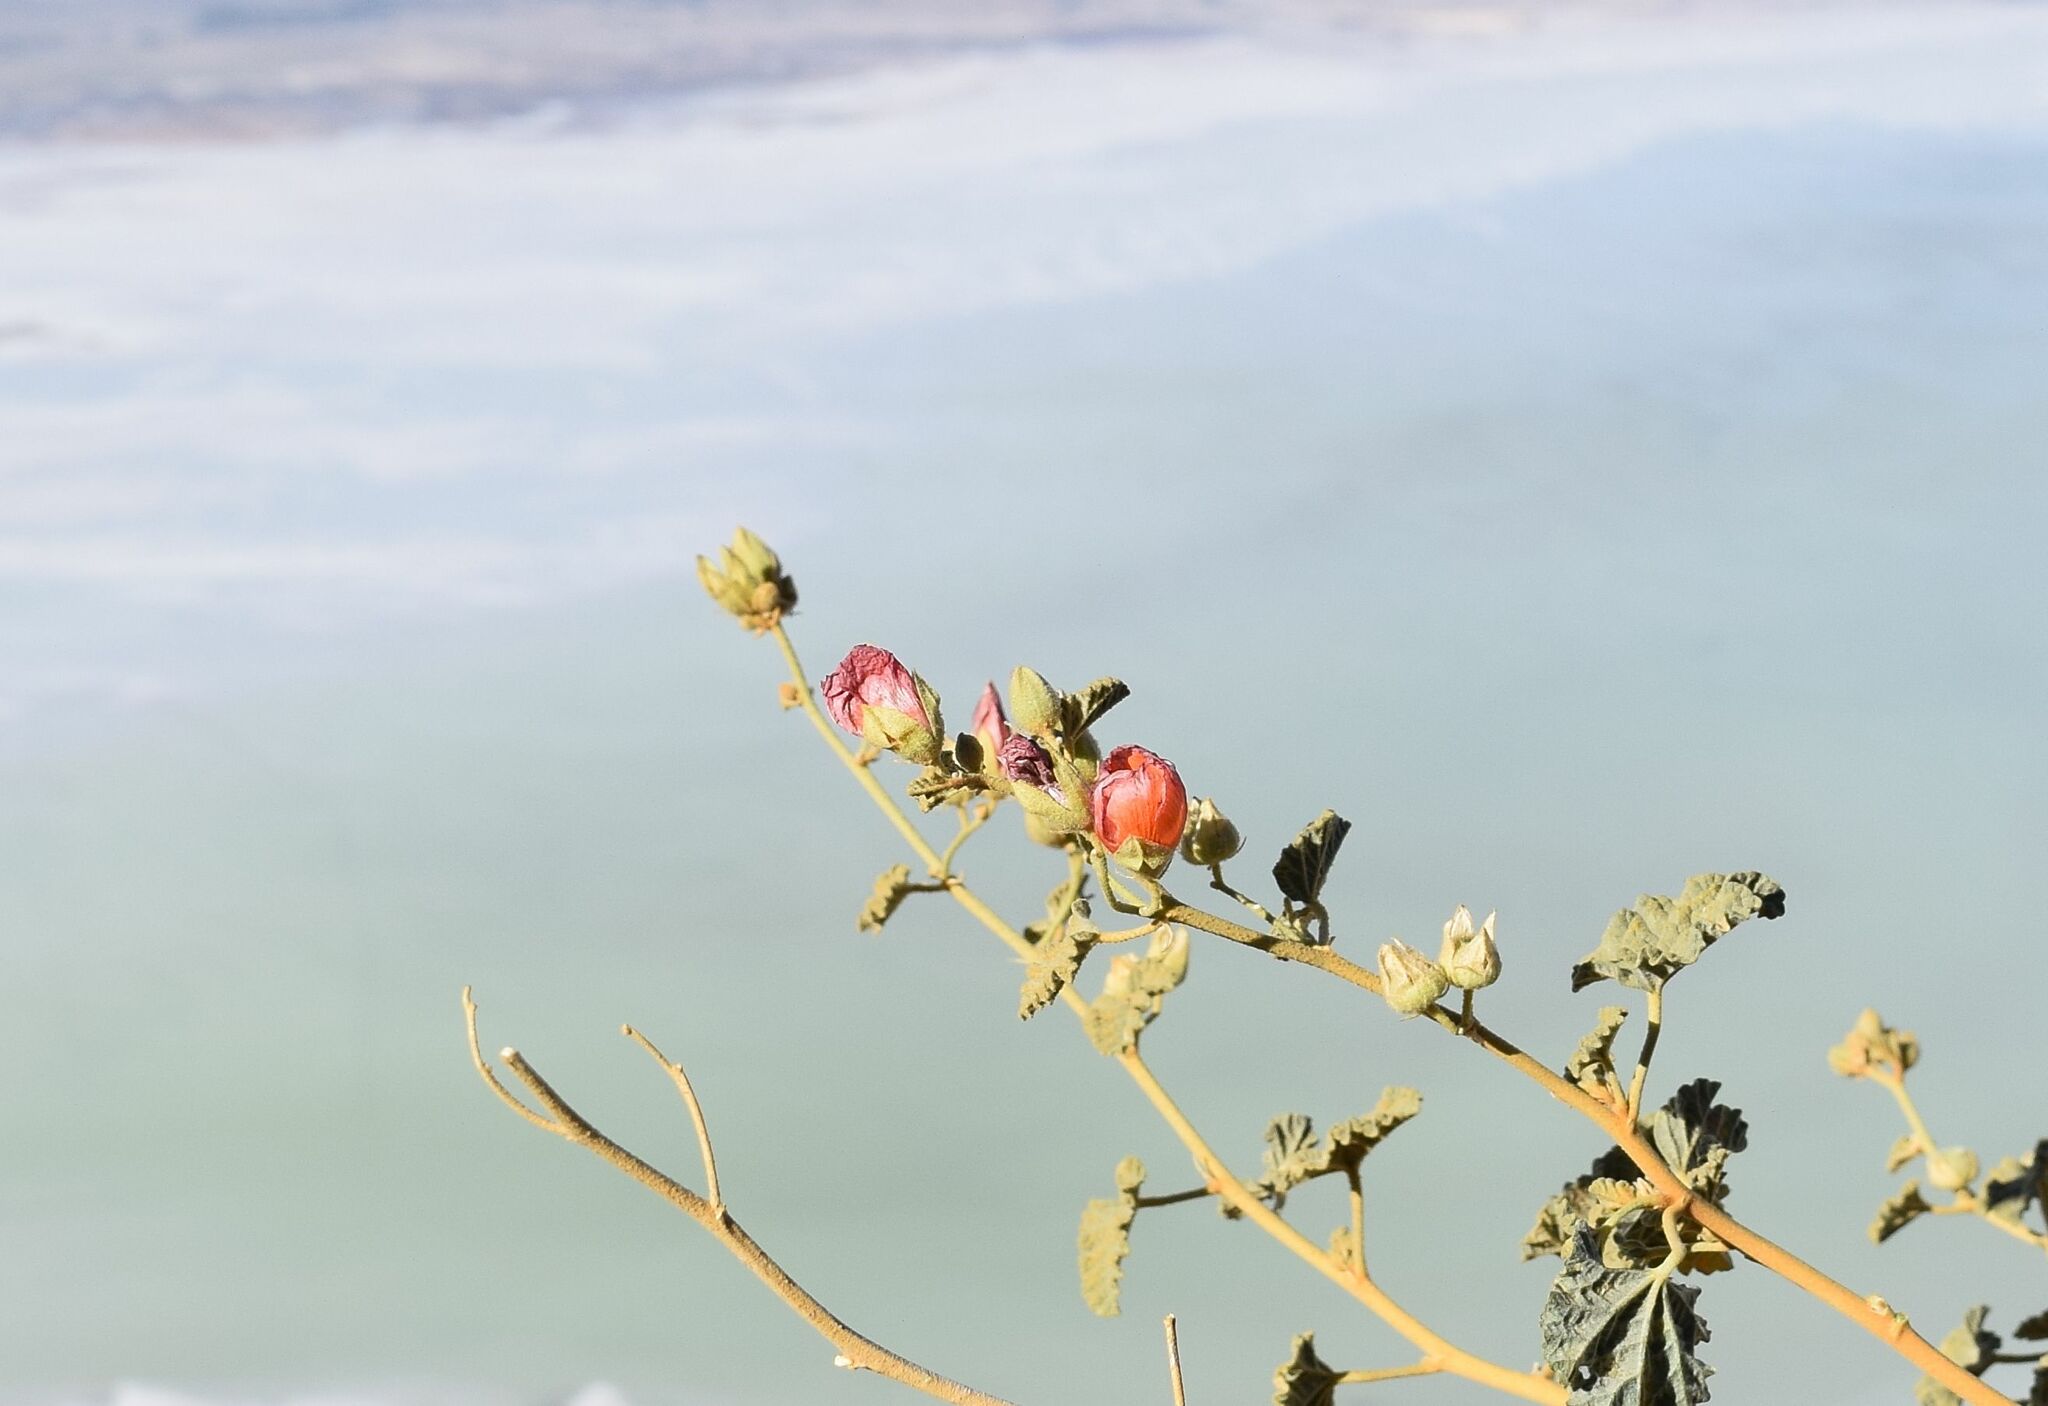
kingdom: Plantae
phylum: Tracheophyta
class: Magnoliopsida
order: Malvales
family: Malvaceae
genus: Sphaeralcea
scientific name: Sphaeralcea ambigua
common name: Apricot globe-mallow
